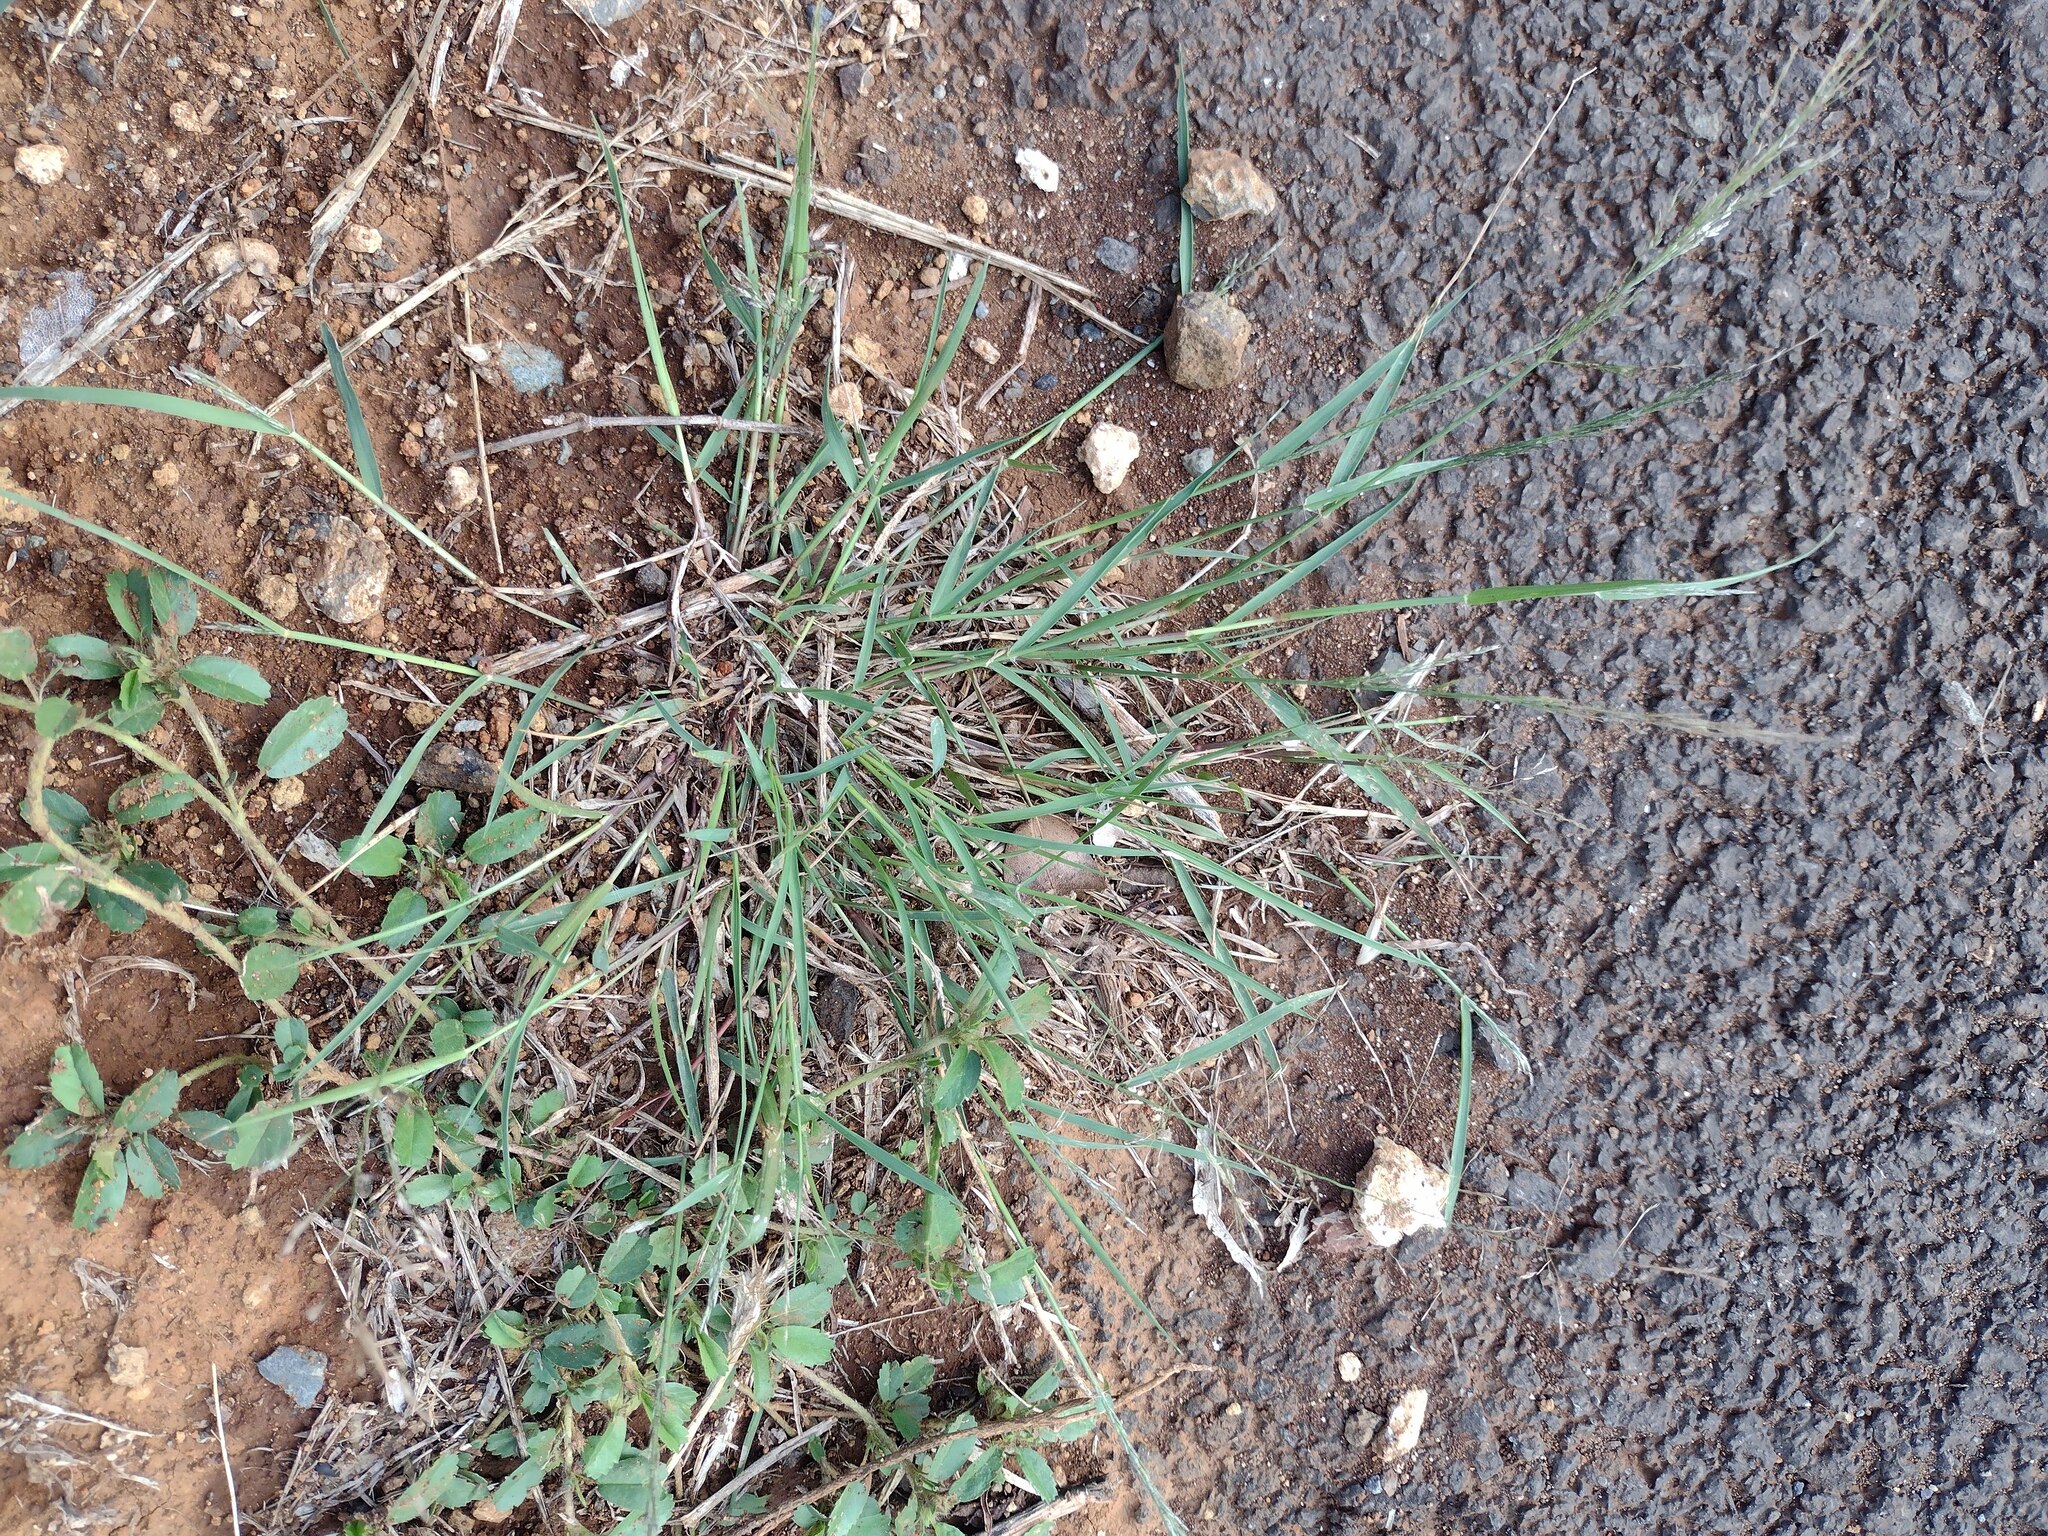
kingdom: Plantae
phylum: Tracheophyta
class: Liliopsida
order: Poales
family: Poaceae
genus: Eragrostis
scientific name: Eragrostis pilosa
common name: Indian lovegrass
